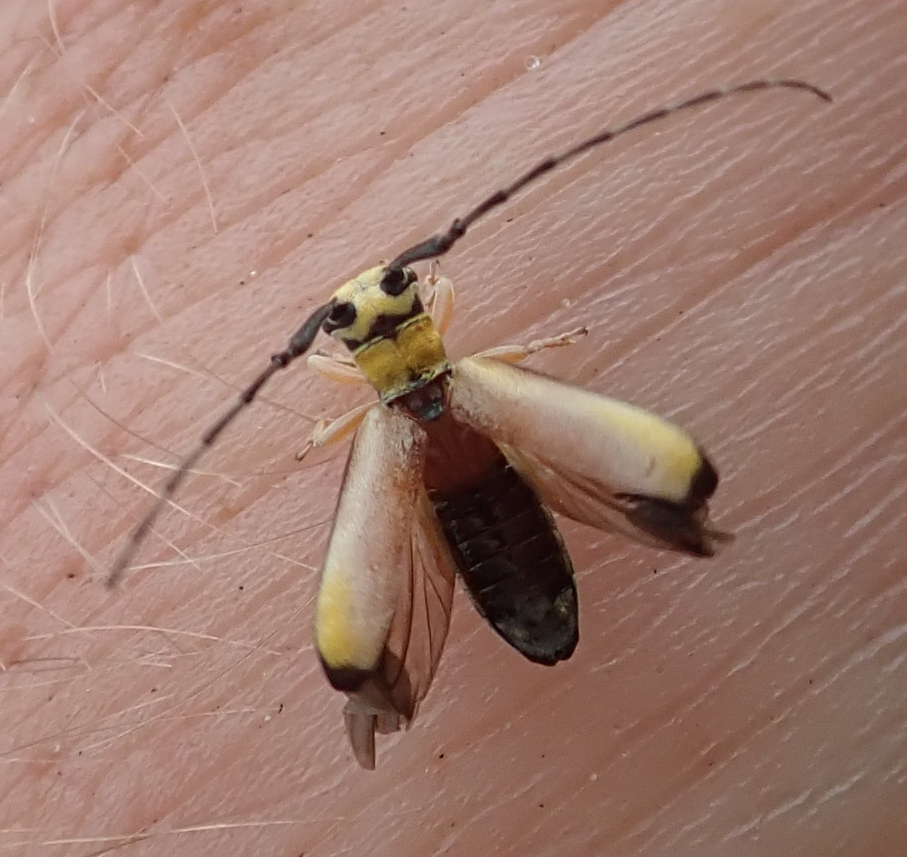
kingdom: Animalia
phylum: Arthropoda
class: Insecta
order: Coleoptera
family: Cerambycidae
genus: Eunidia
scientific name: Eunidia sulphurea
